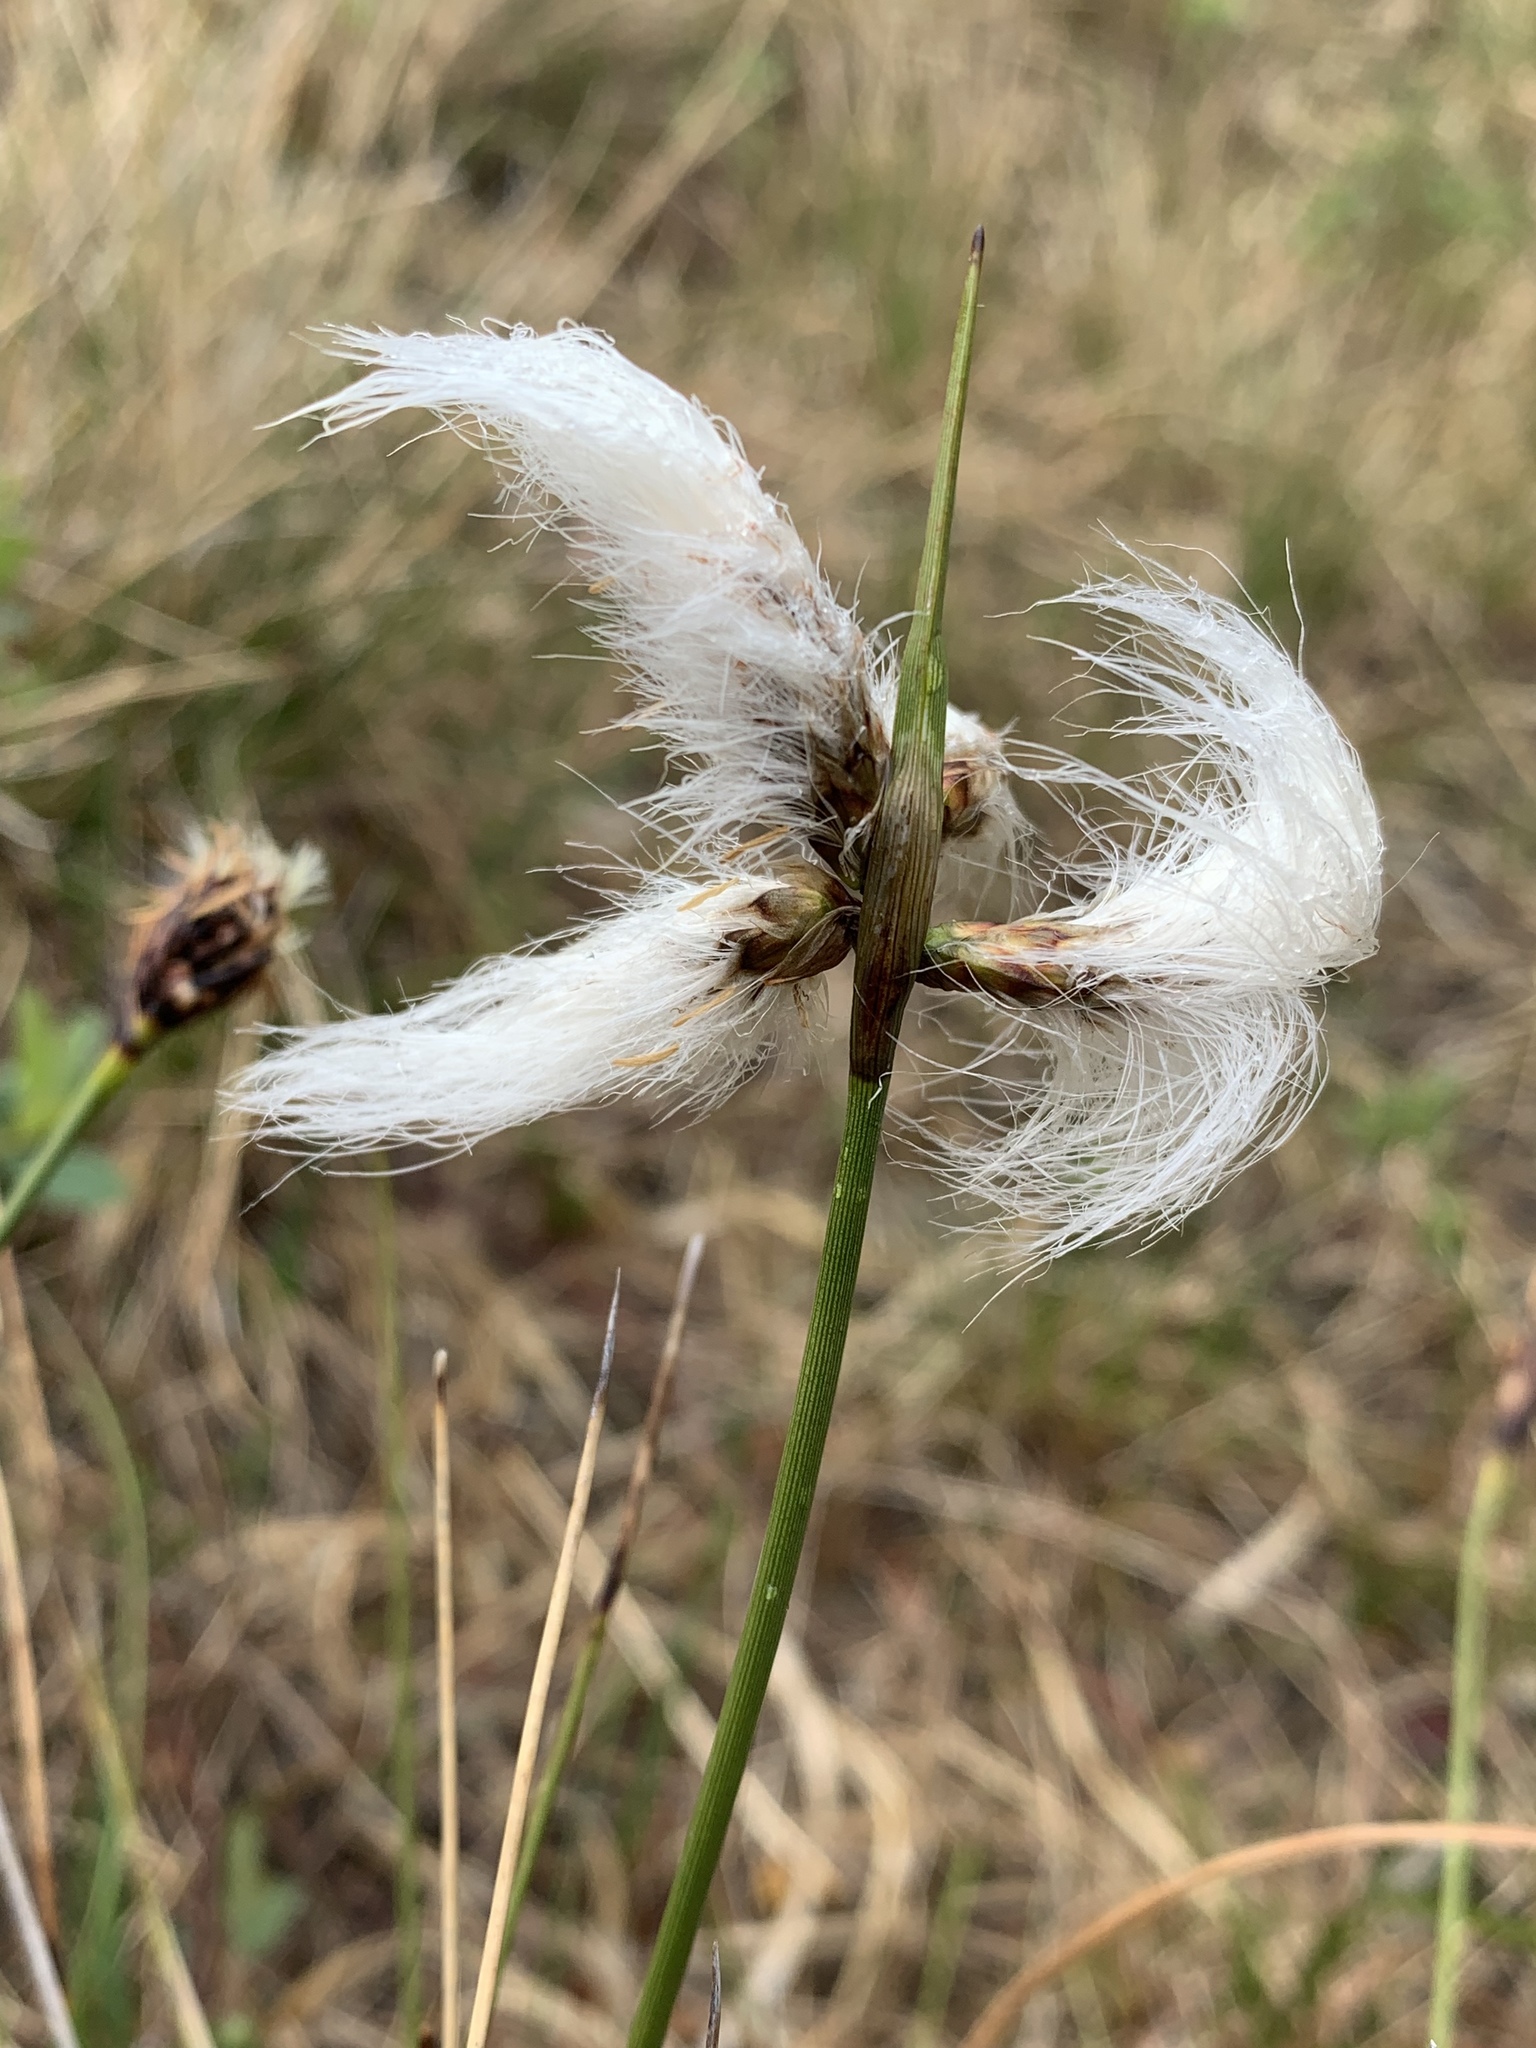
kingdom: Plantae
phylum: Tracheophyta
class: Liliopsida
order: Poales
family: Cyperaceae
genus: Eriophorum
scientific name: Eriophorum angustifolium
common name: Common cottongrass
